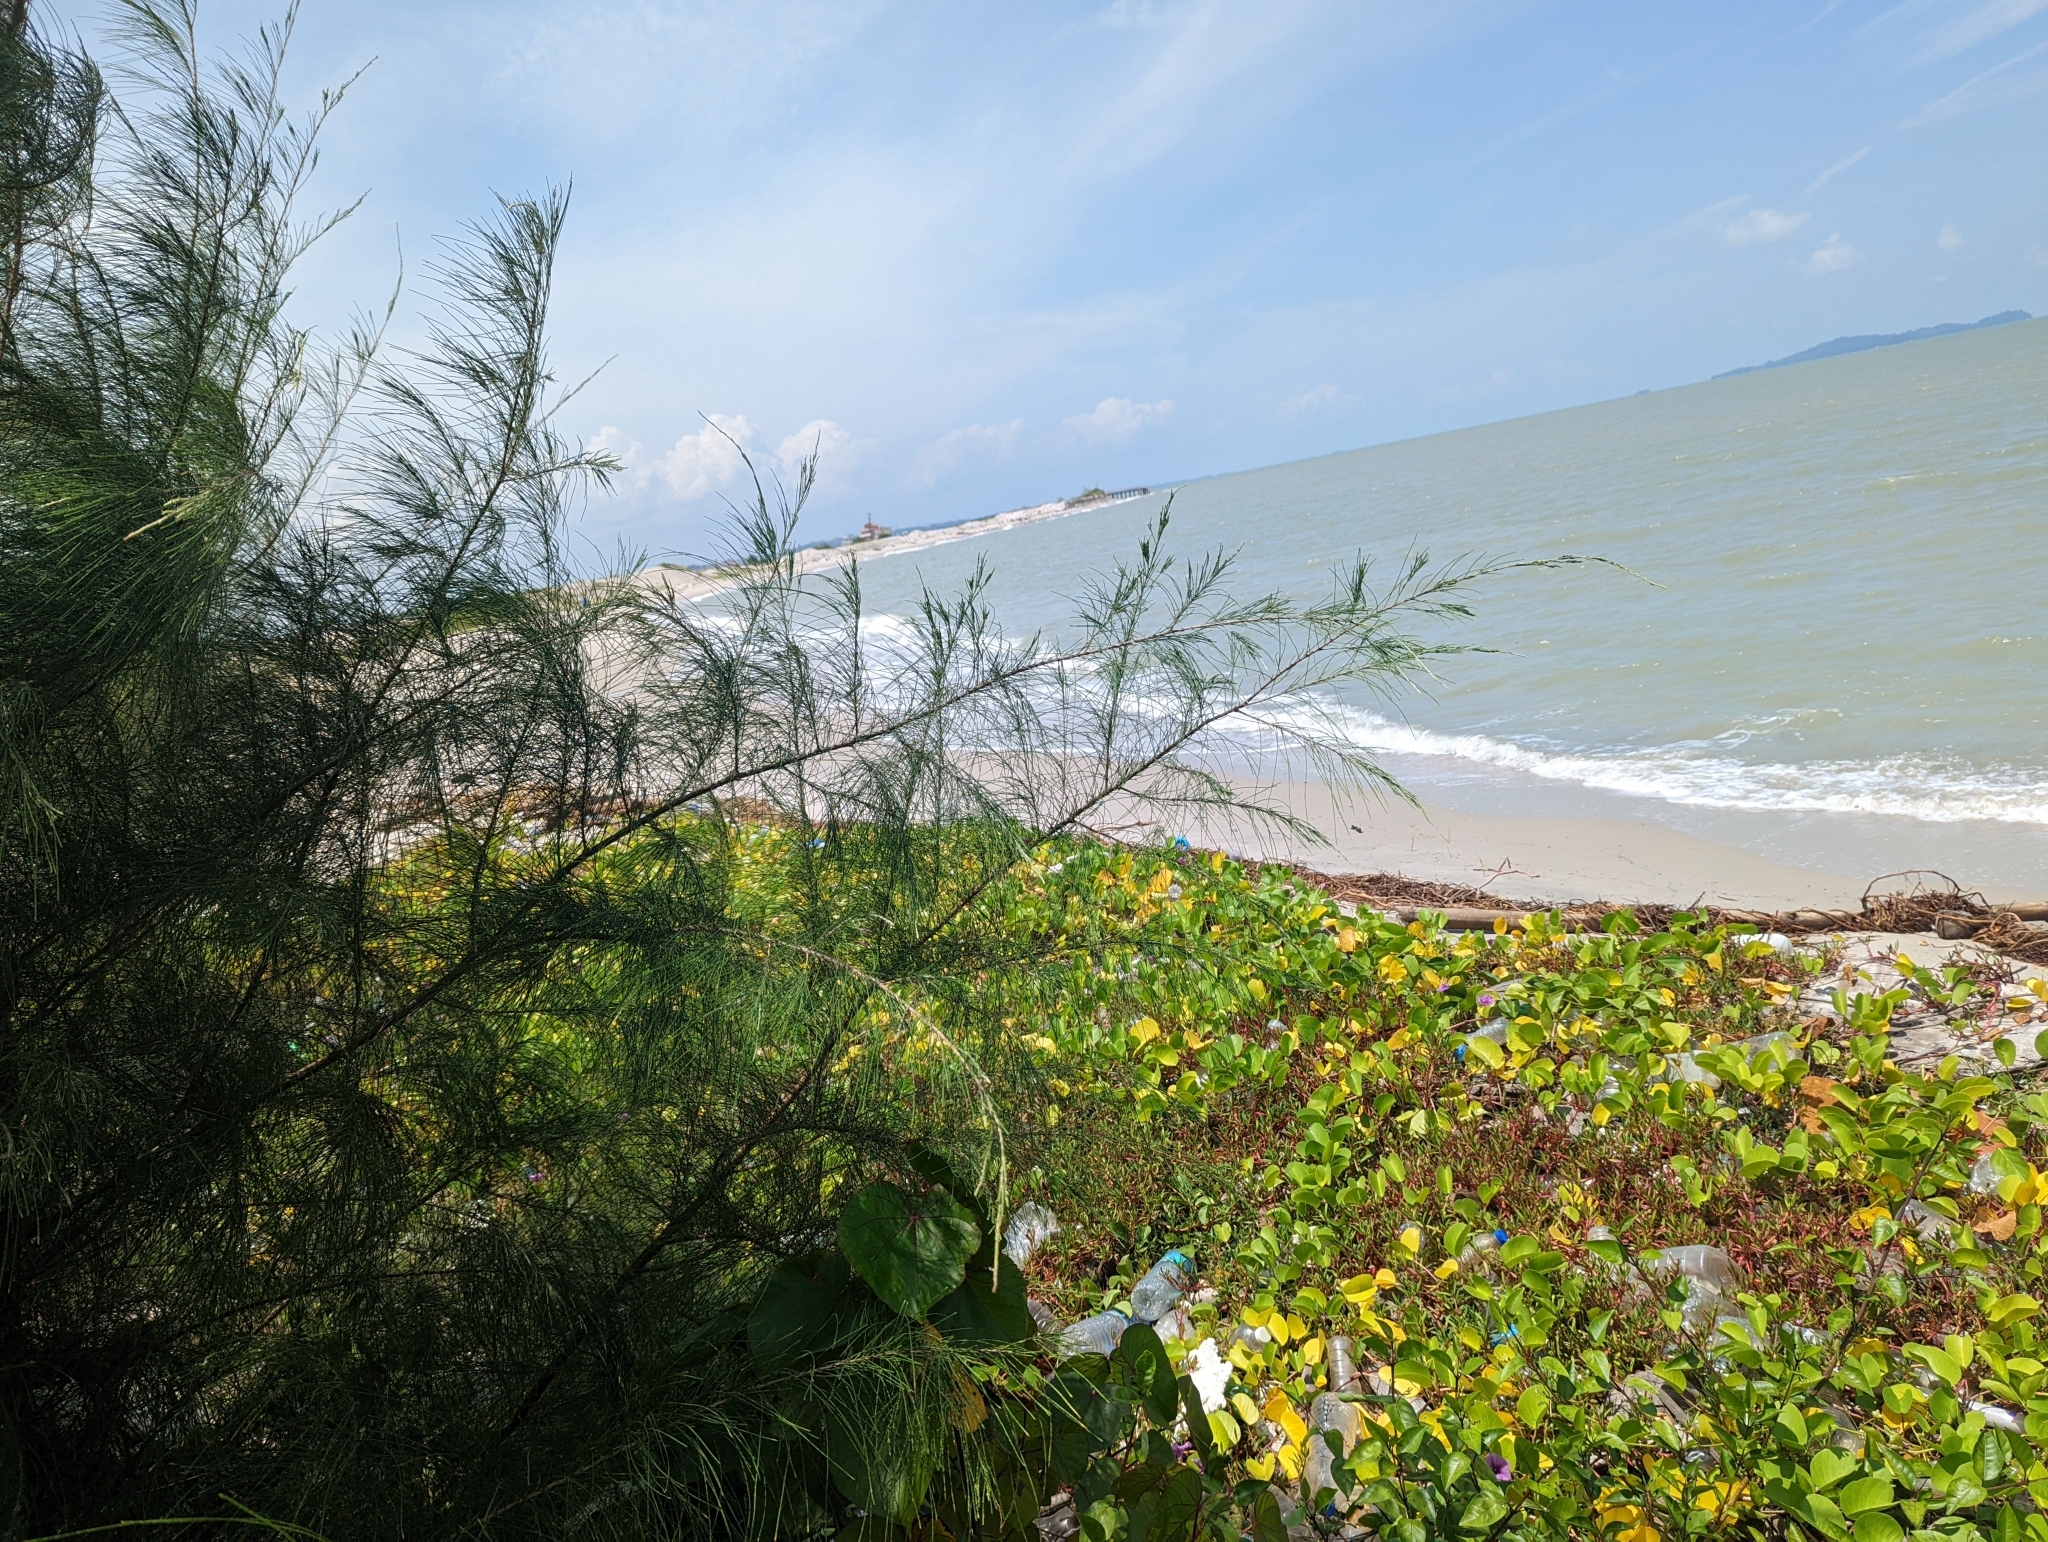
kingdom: Plantae
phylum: Tracheophyta
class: Magnoliopsida
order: Fagales
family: Casuarinaceae
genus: Casuarina
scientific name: Casuarina equisetifolia
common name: Beach sheoak
